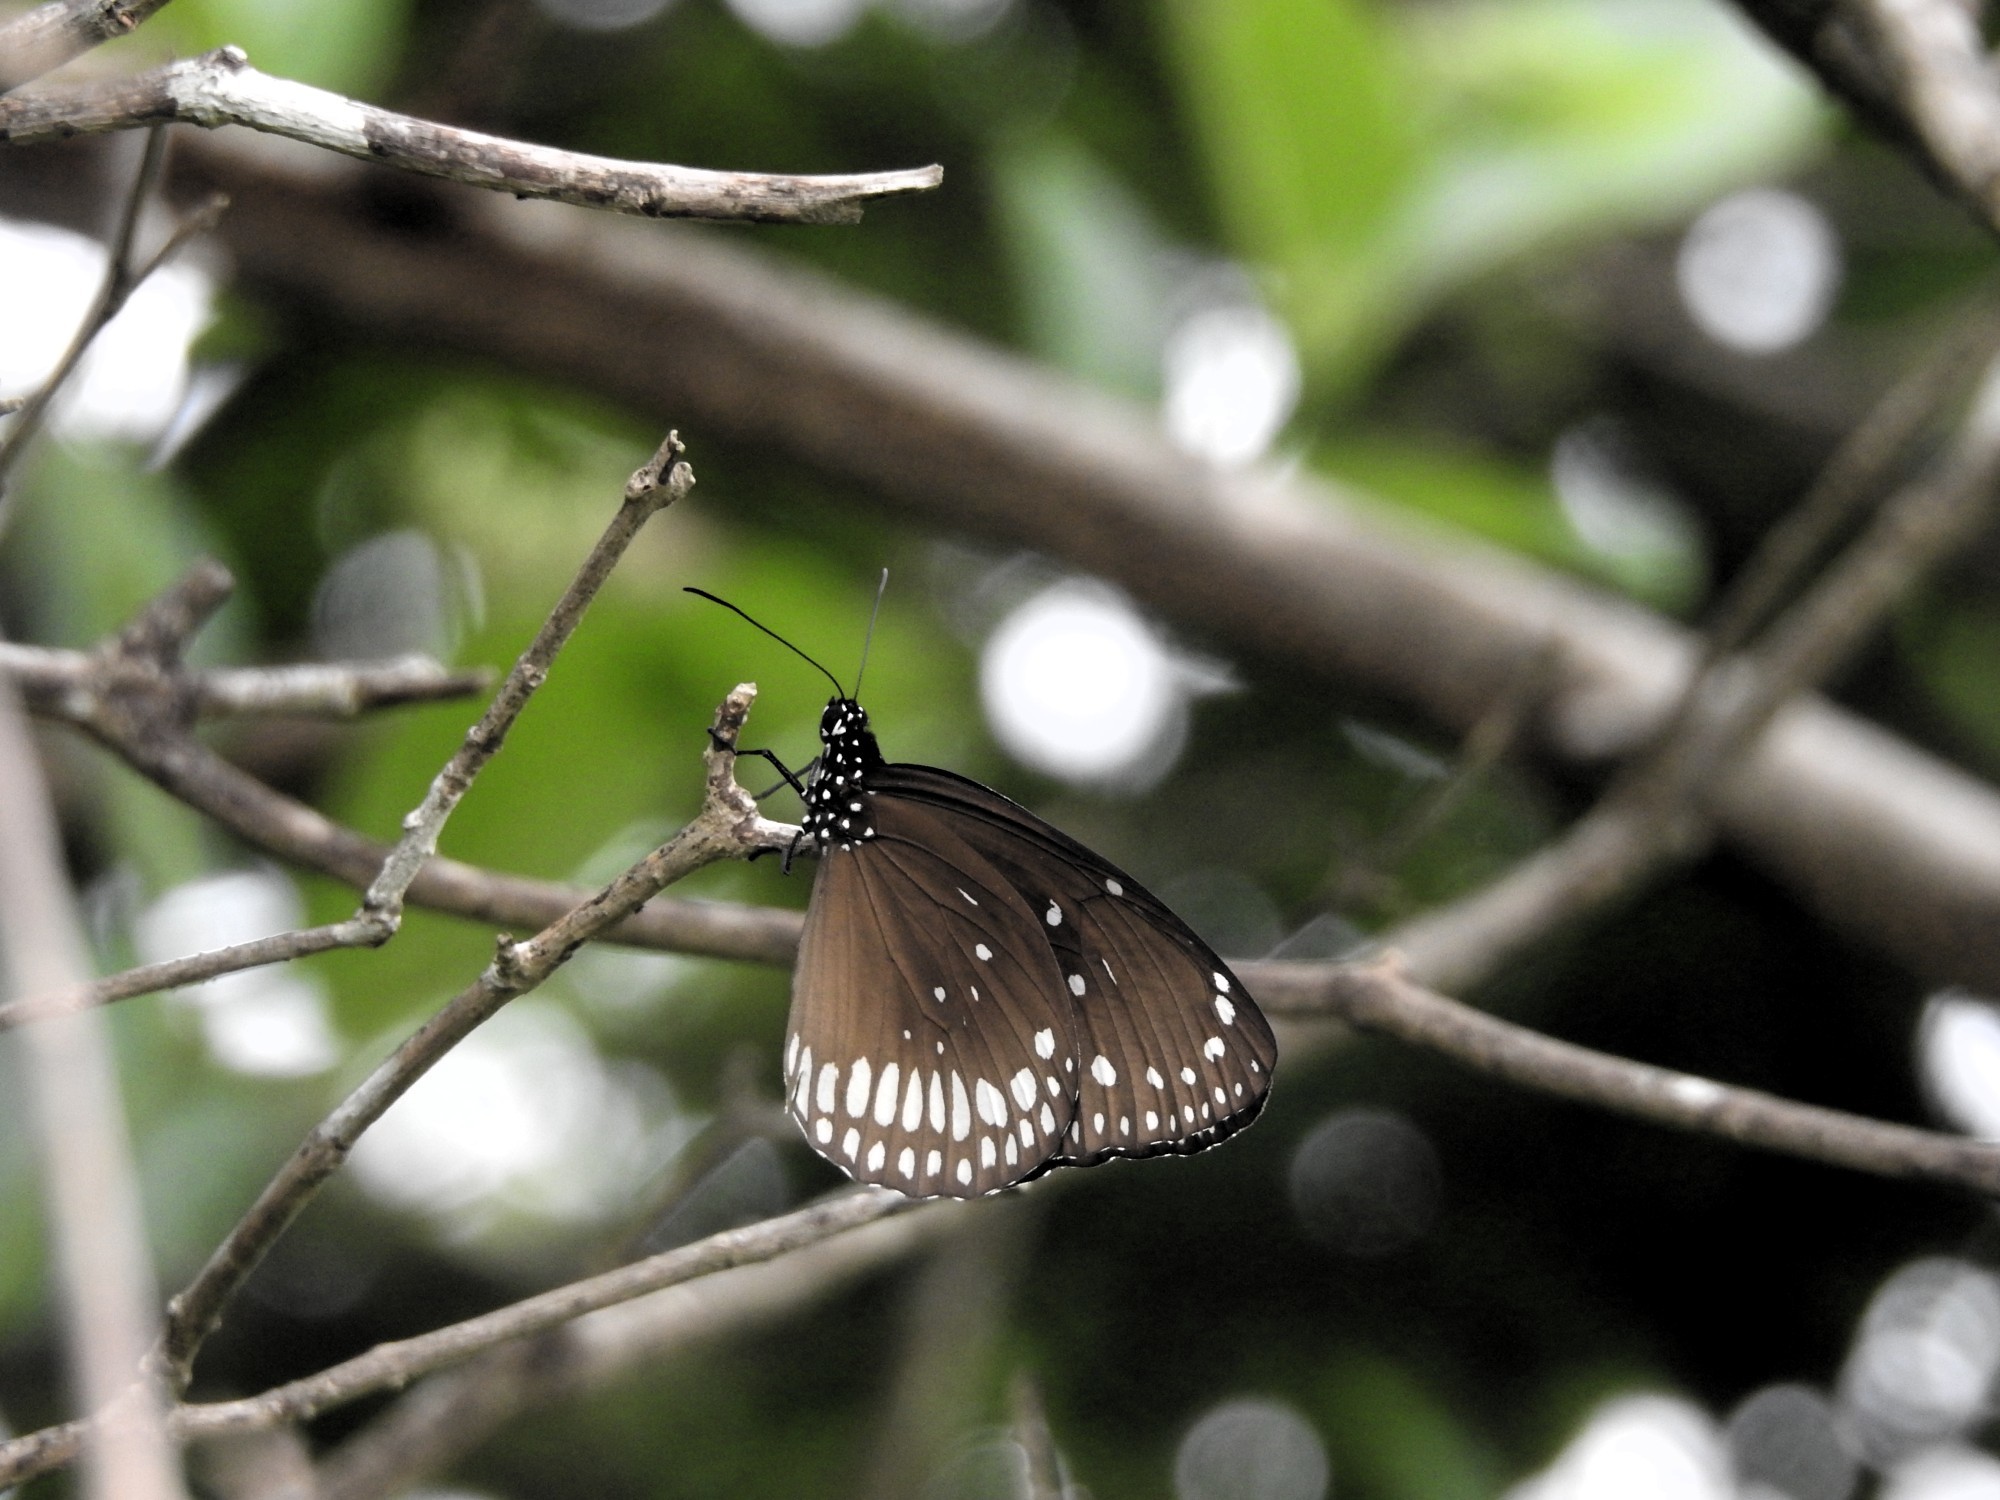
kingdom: Animalia
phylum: Arthropoda
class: Insecta
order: Lepidoptera
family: Nymphalidae
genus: Euploea
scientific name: Euploea core
